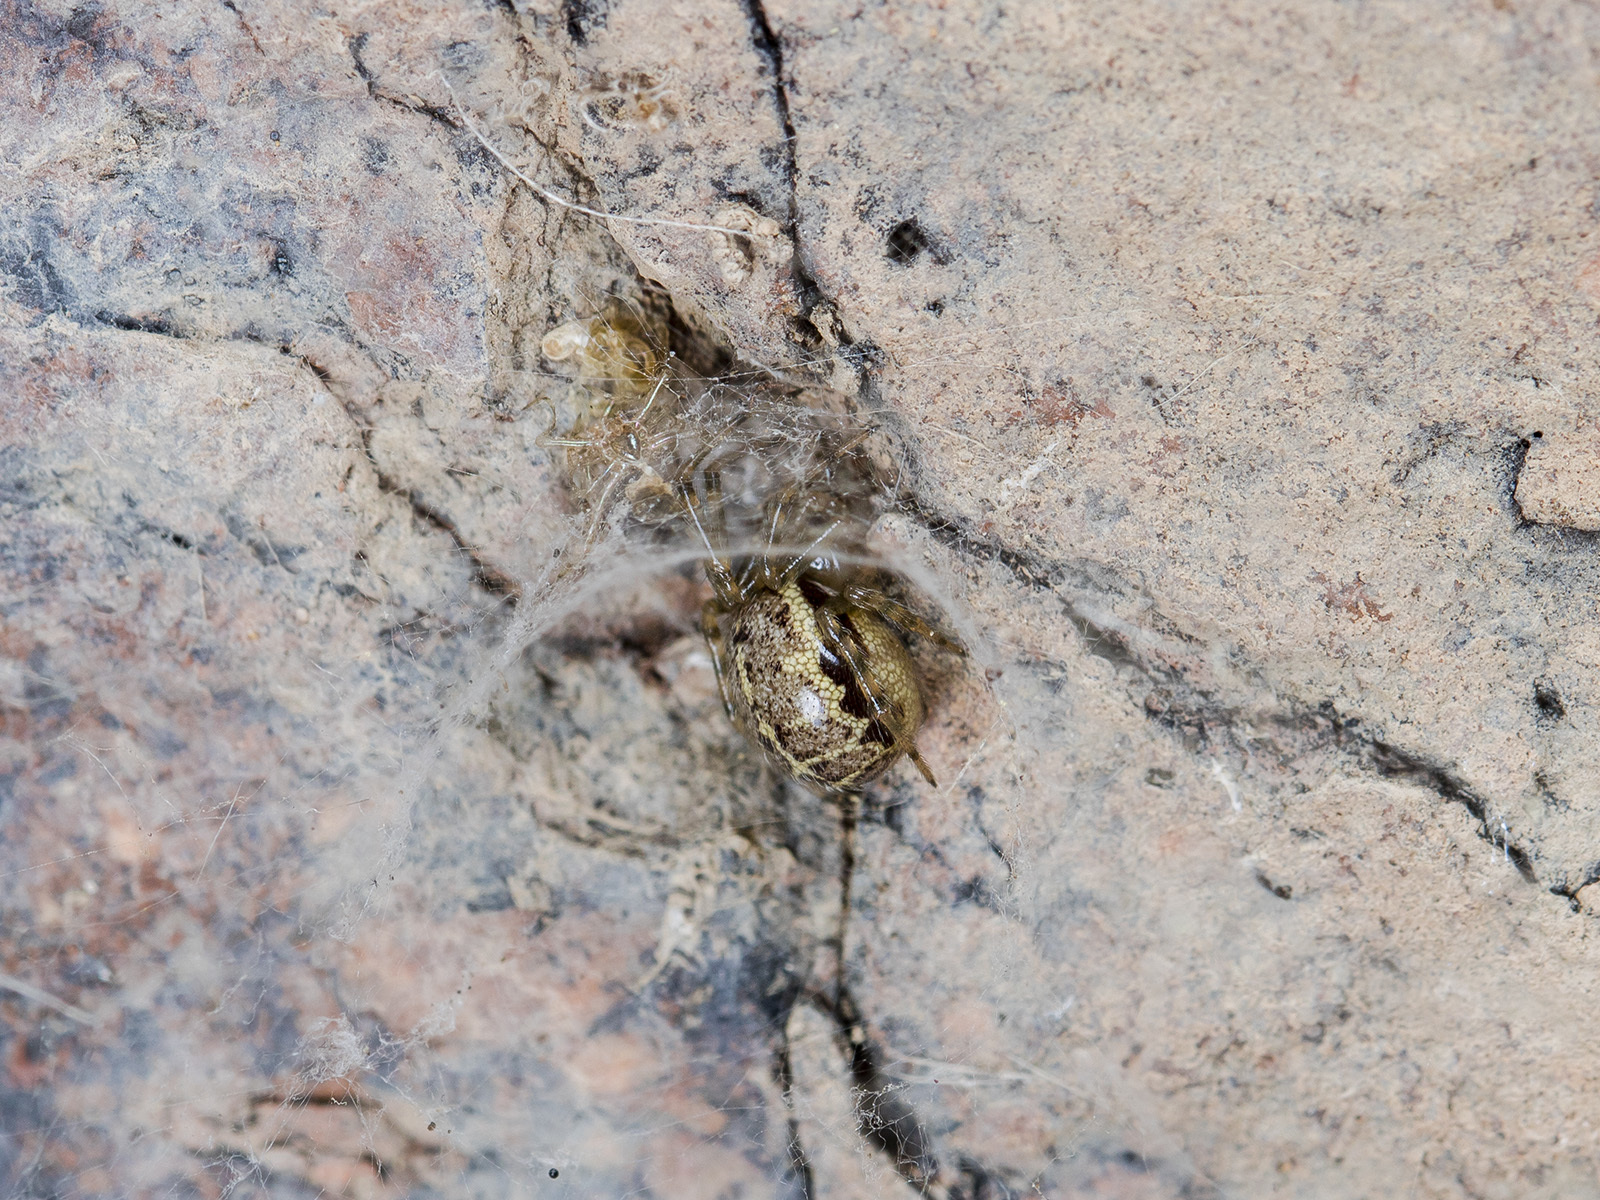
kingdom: Animalia
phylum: Arthropoda
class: Arachnida
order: Araneae
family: Theridiidae
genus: Steatoda
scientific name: Steatoda castanea
